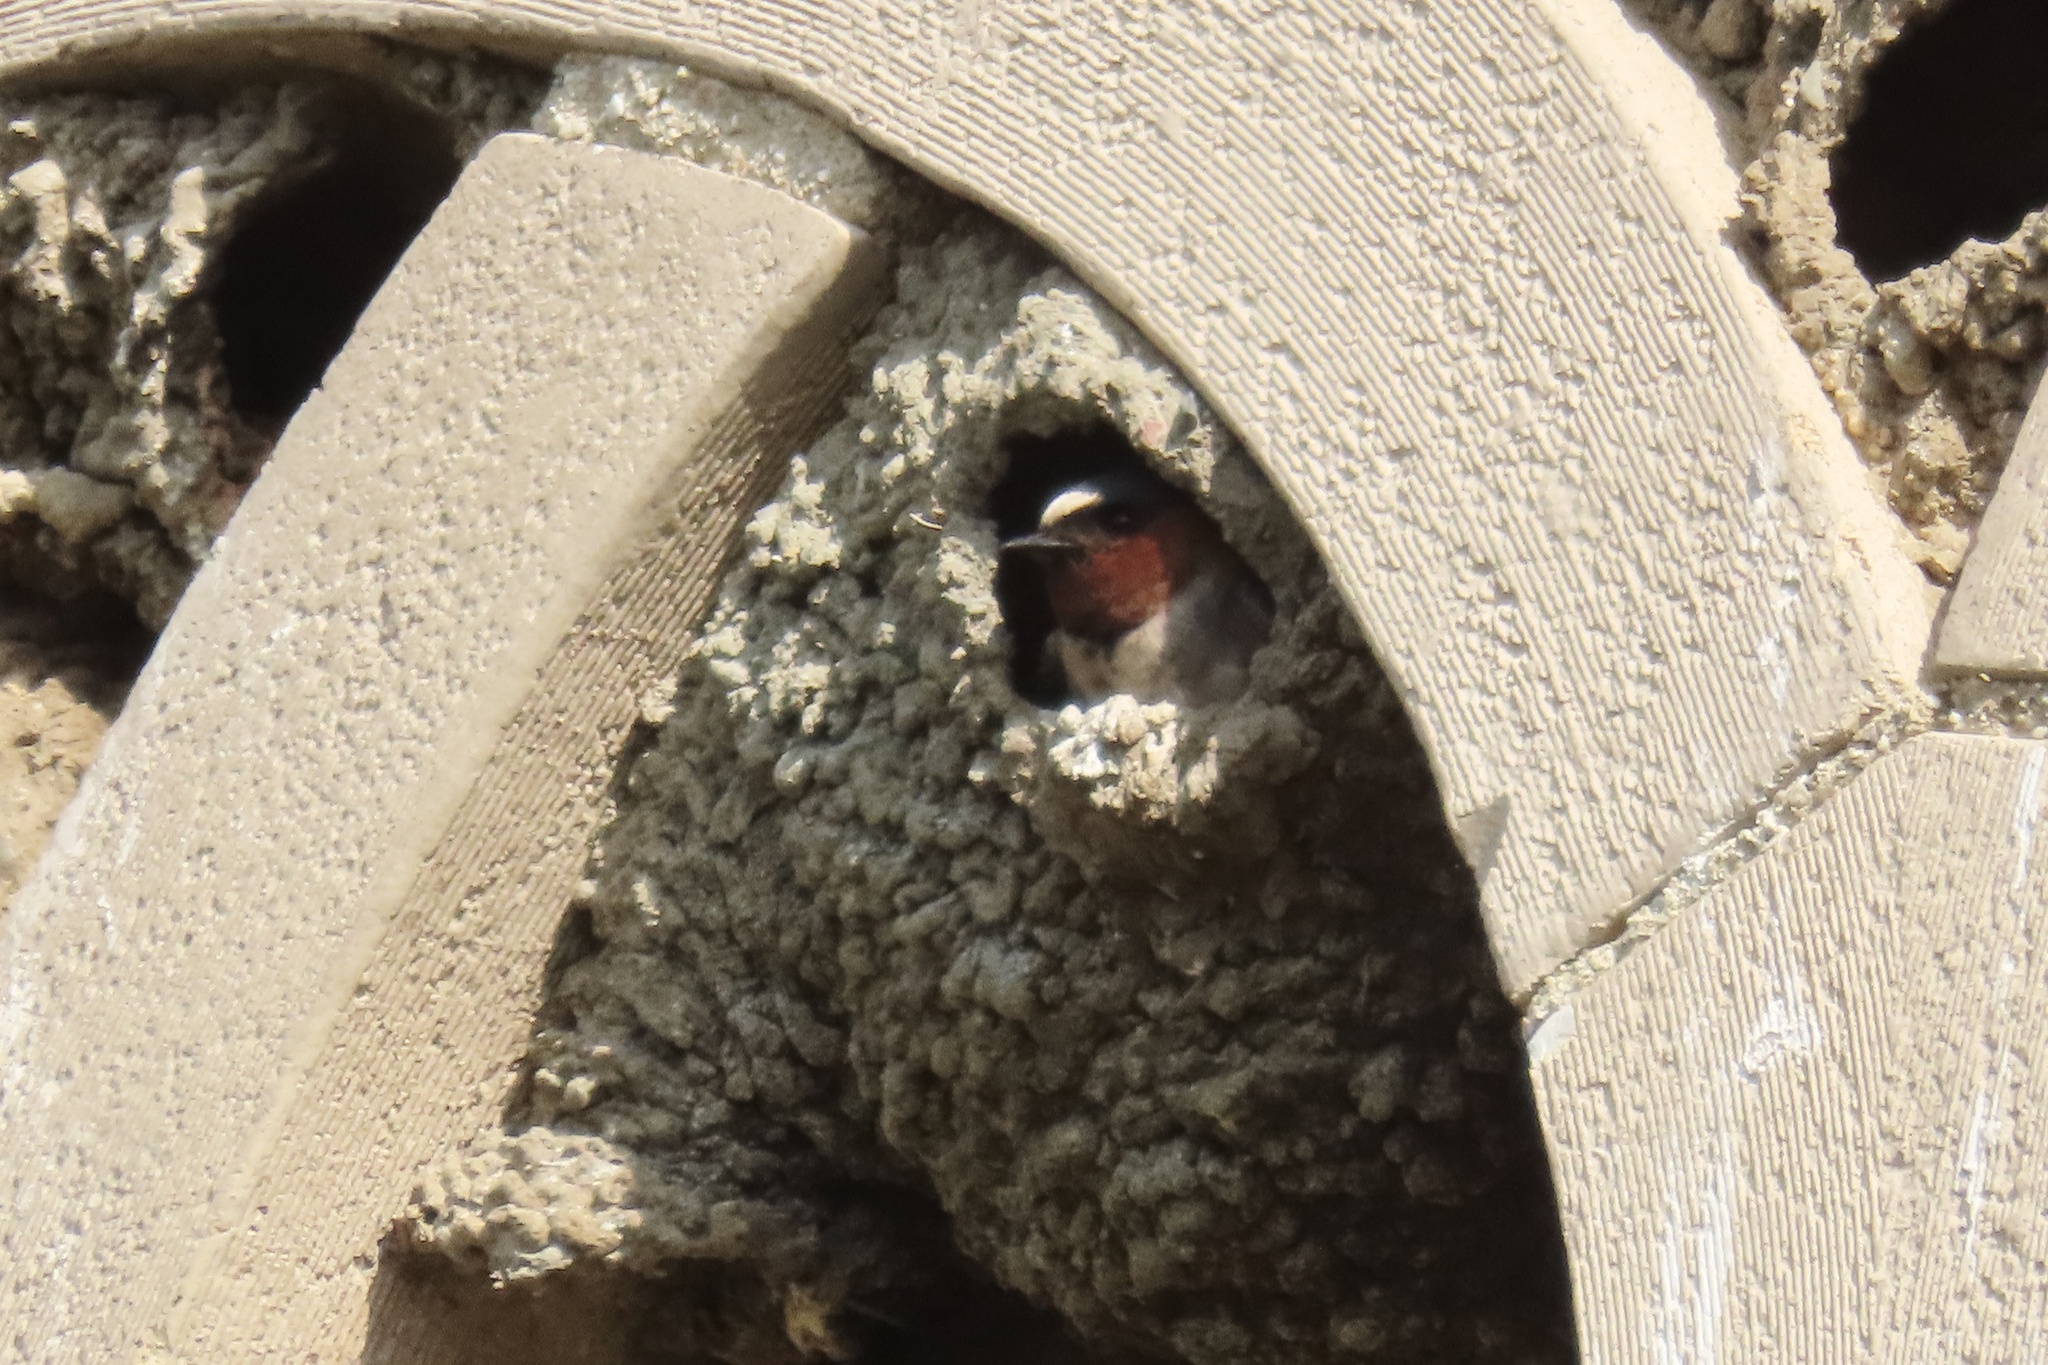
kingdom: Animalia
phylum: Chordata
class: Aves
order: Passeriformes
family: Hirundinidae
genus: Petrochelidon
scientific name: Petrochelidon pyrrhonota
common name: American cliff swallow
